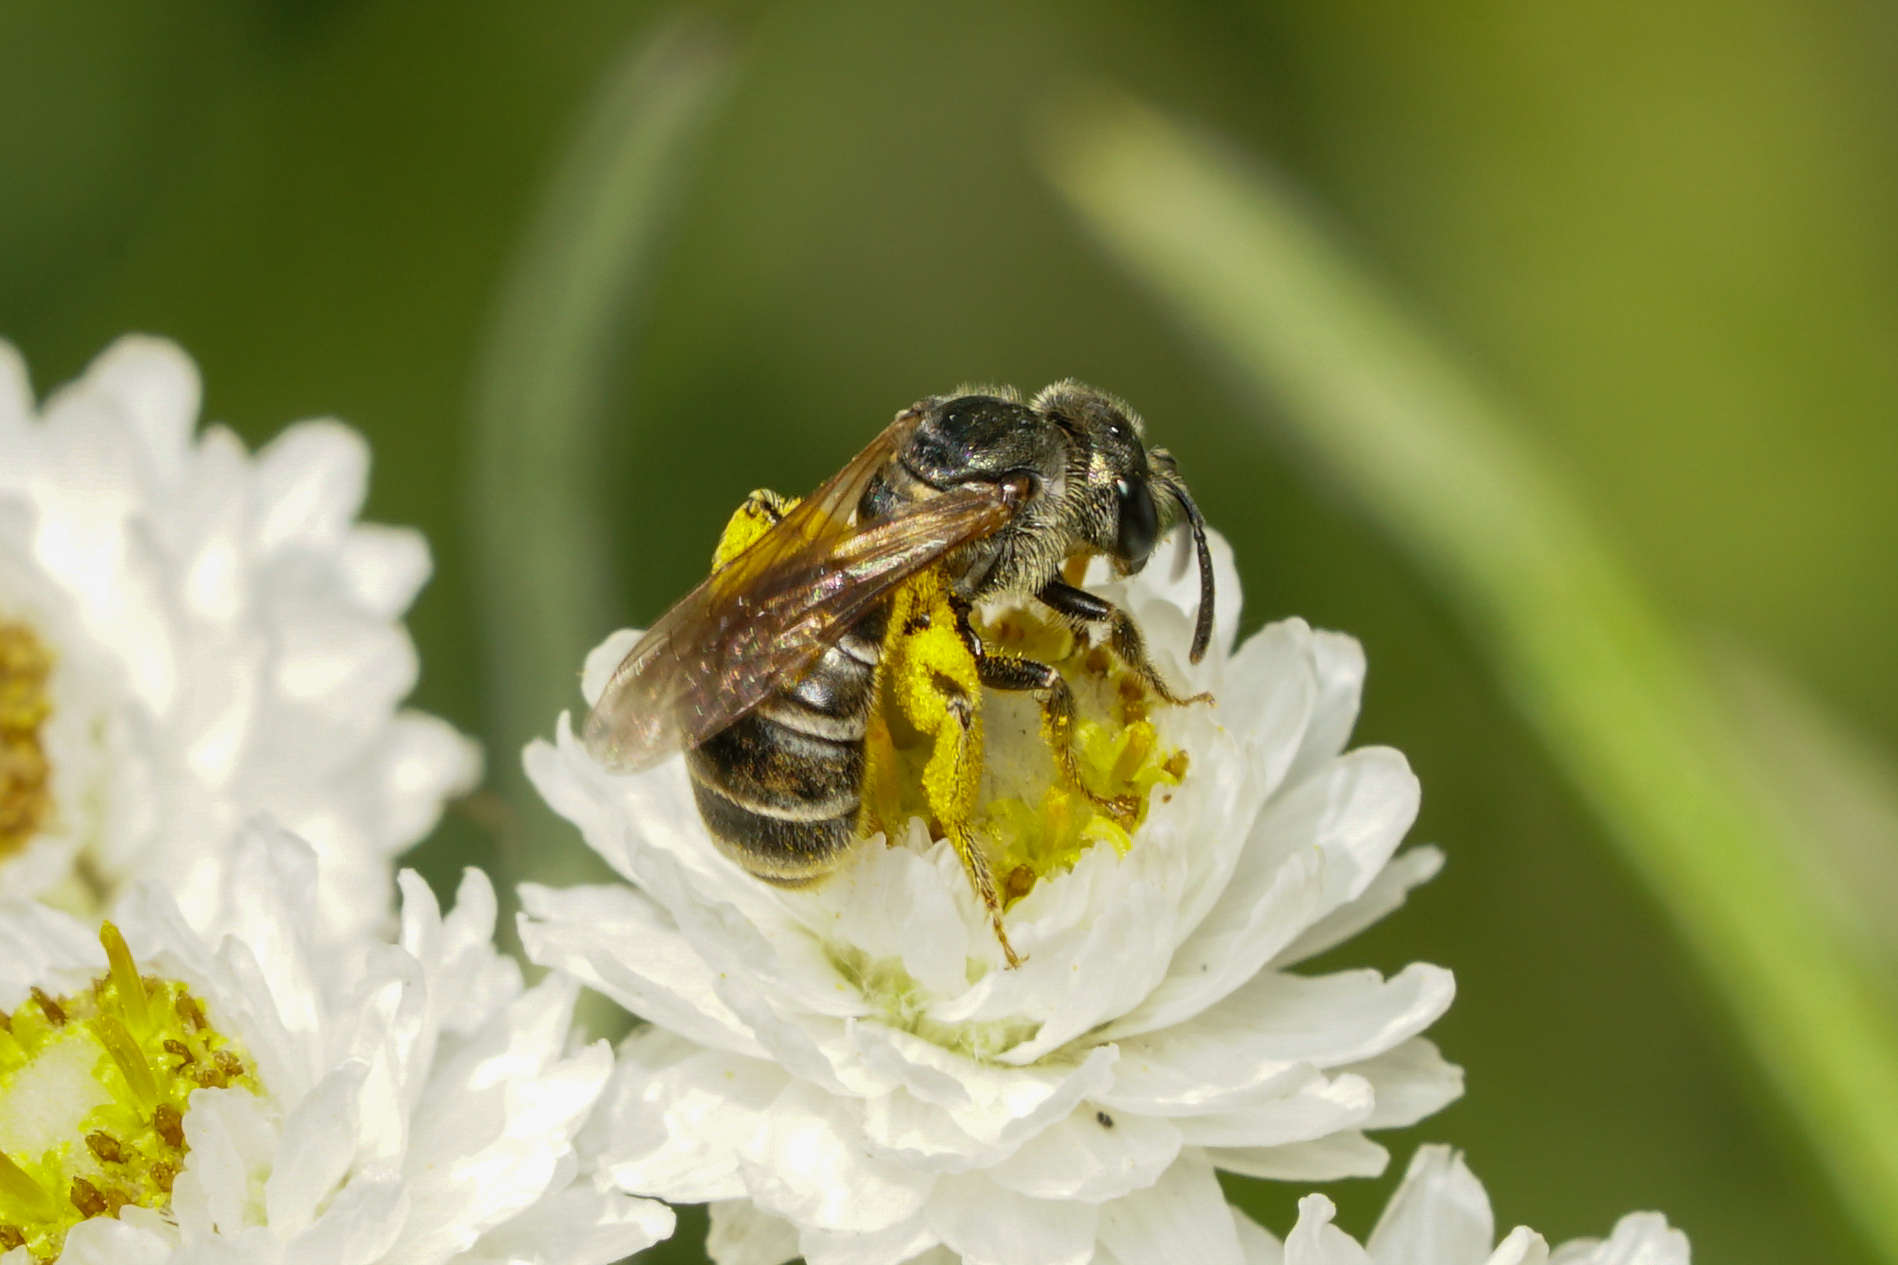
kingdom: Animalia
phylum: Arthropoda
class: Insecta
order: Hymenoptera
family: Halictidae
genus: Halictus
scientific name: Halictus confusus
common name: Southern bronze furrow bee
